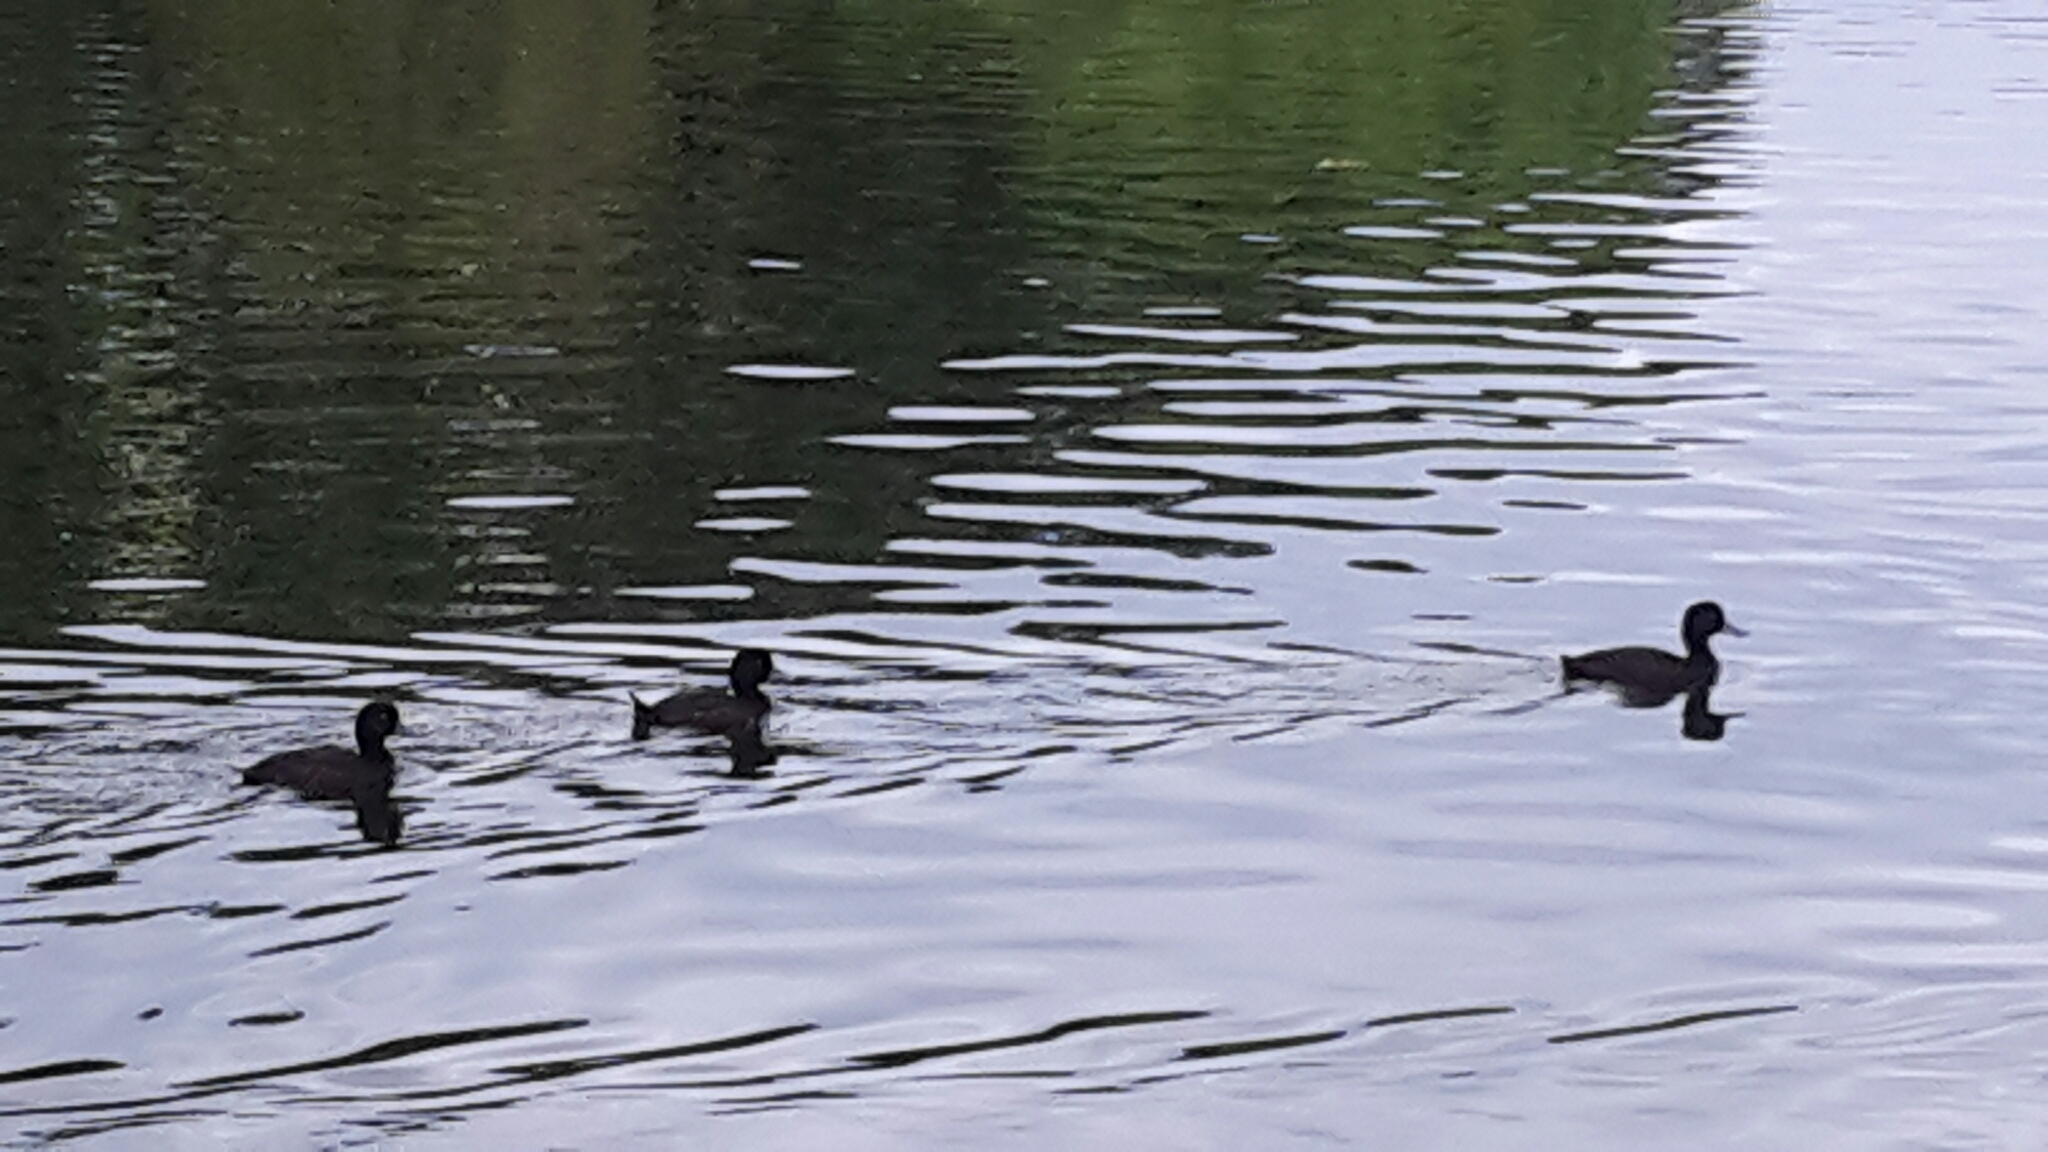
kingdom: Animalia
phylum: Chordata
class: Aves
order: Anseriformes
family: Anatidae
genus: Aythya
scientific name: Aythya novaeseelandiae
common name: New zealand scaup
